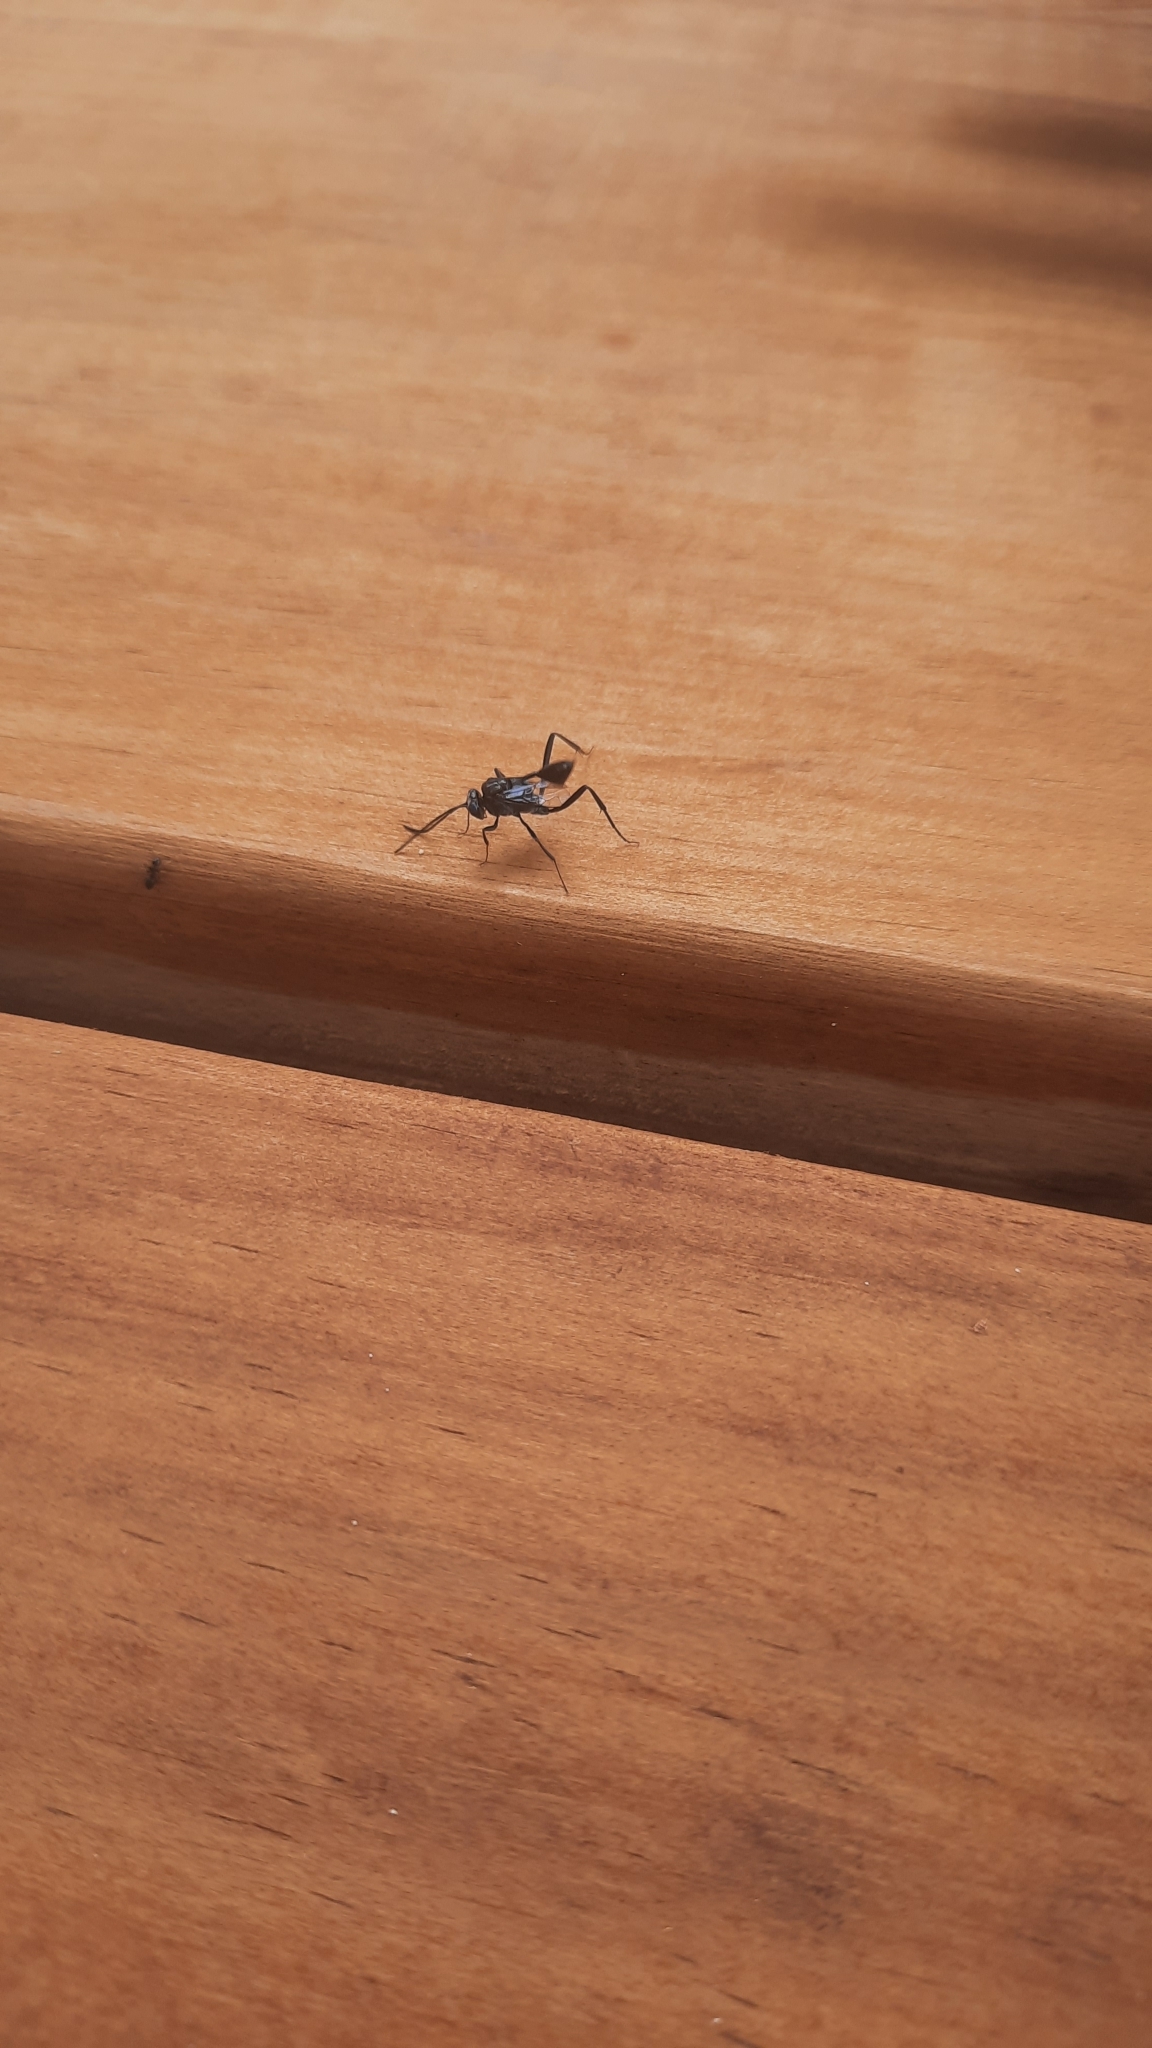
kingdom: Animalia
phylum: Arthropoda
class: Insecta
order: Hymenoptera
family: Evaniidae
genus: Evania
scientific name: Evania appendigaster
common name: Ensign wasp
